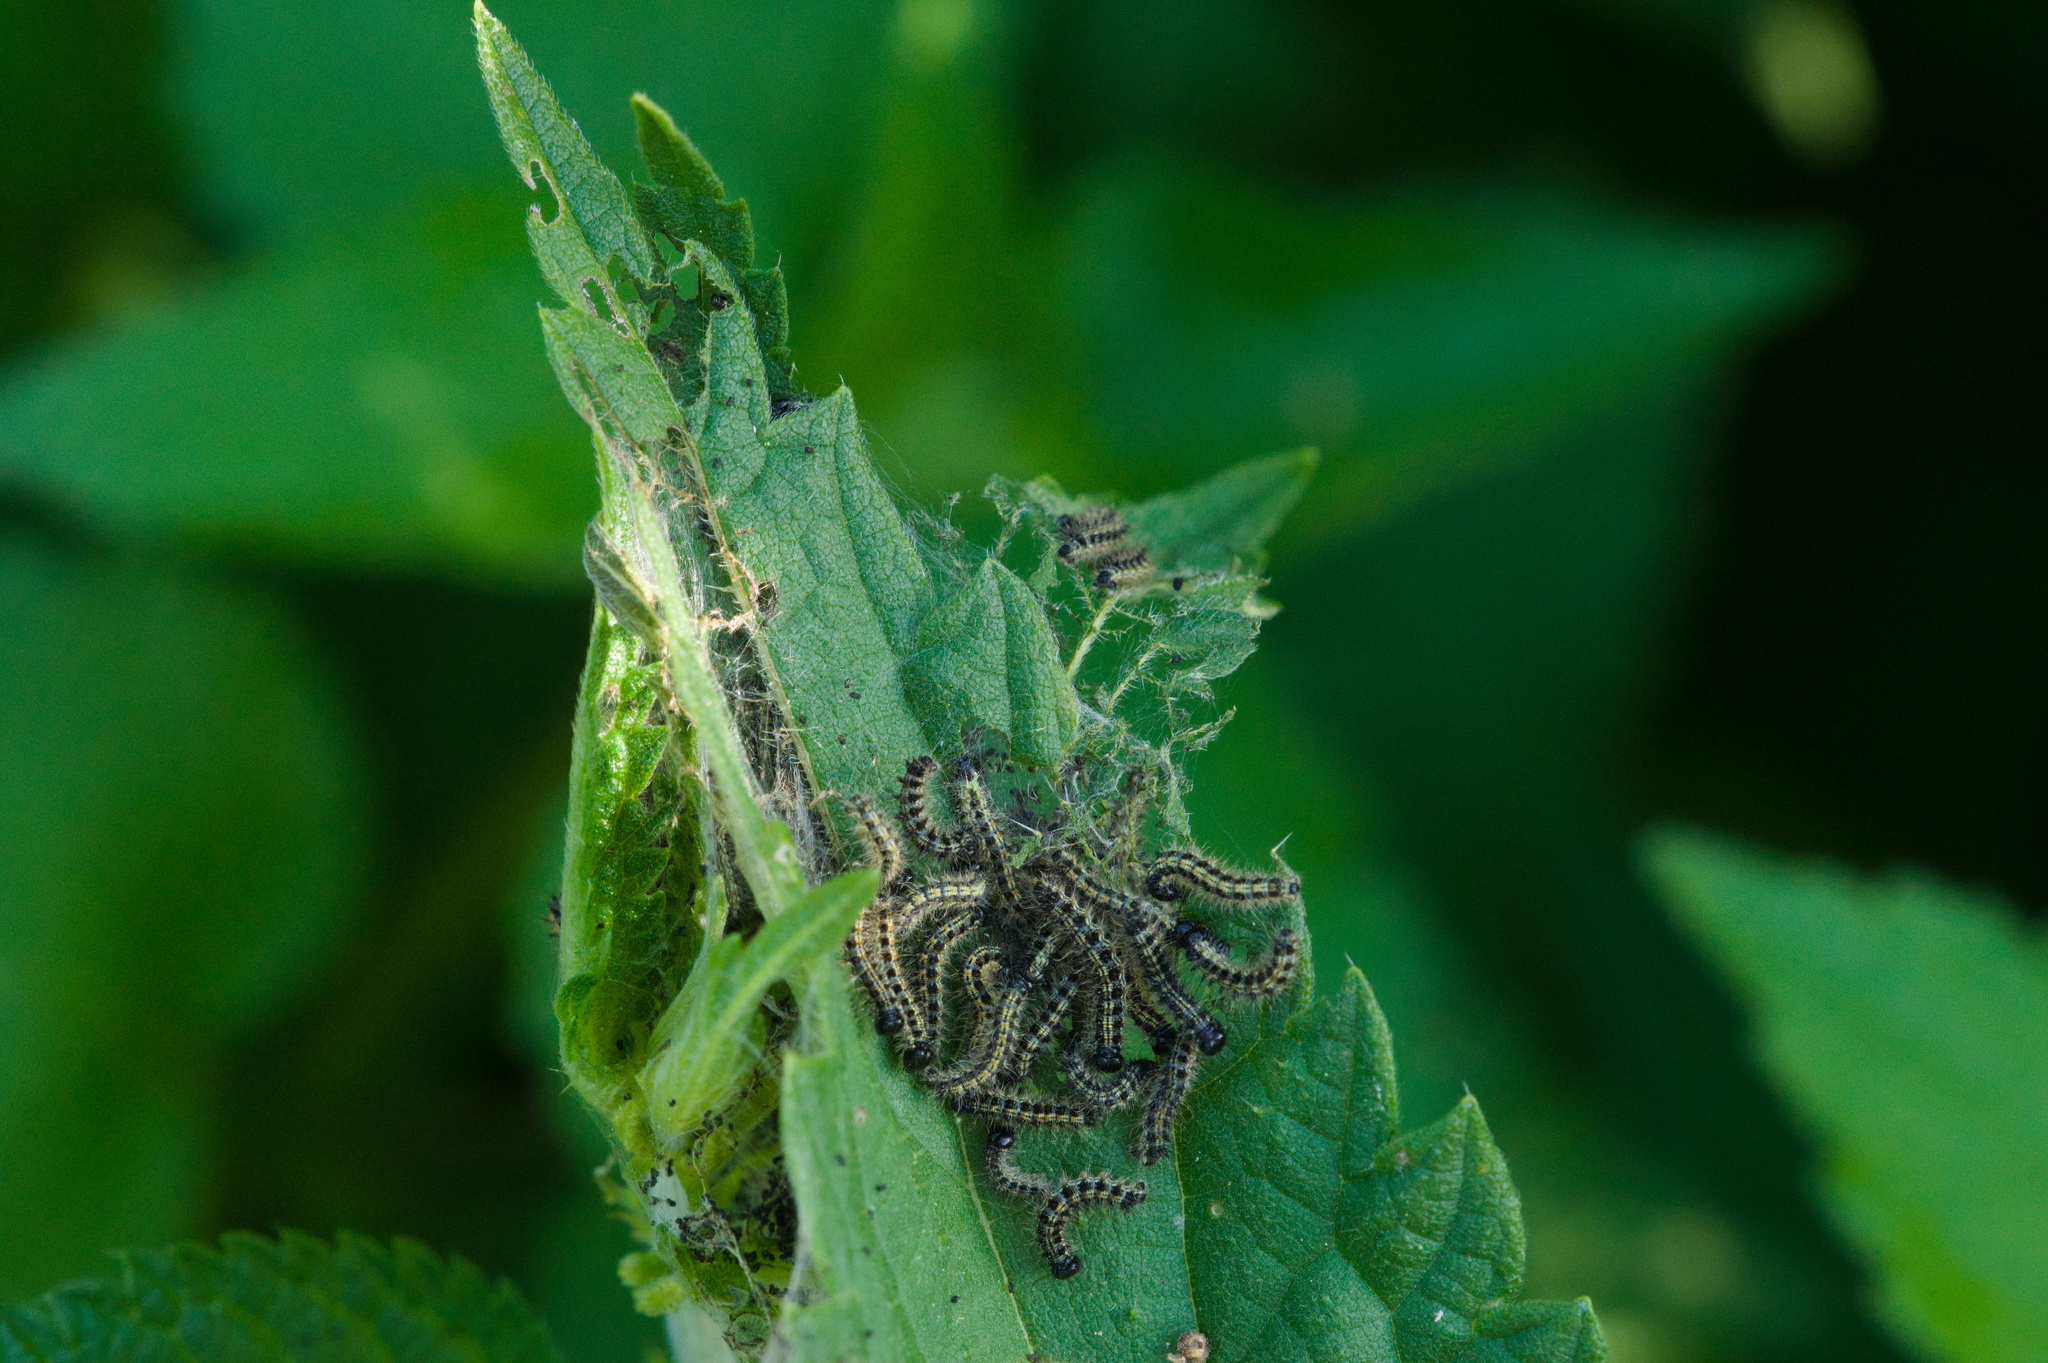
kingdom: Animalia
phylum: Arthropoda
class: Insecta
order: Lepidoptera
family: Nymphalidae
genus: Aglais
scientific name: Aglais urticae
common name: Small tortoiseshell
